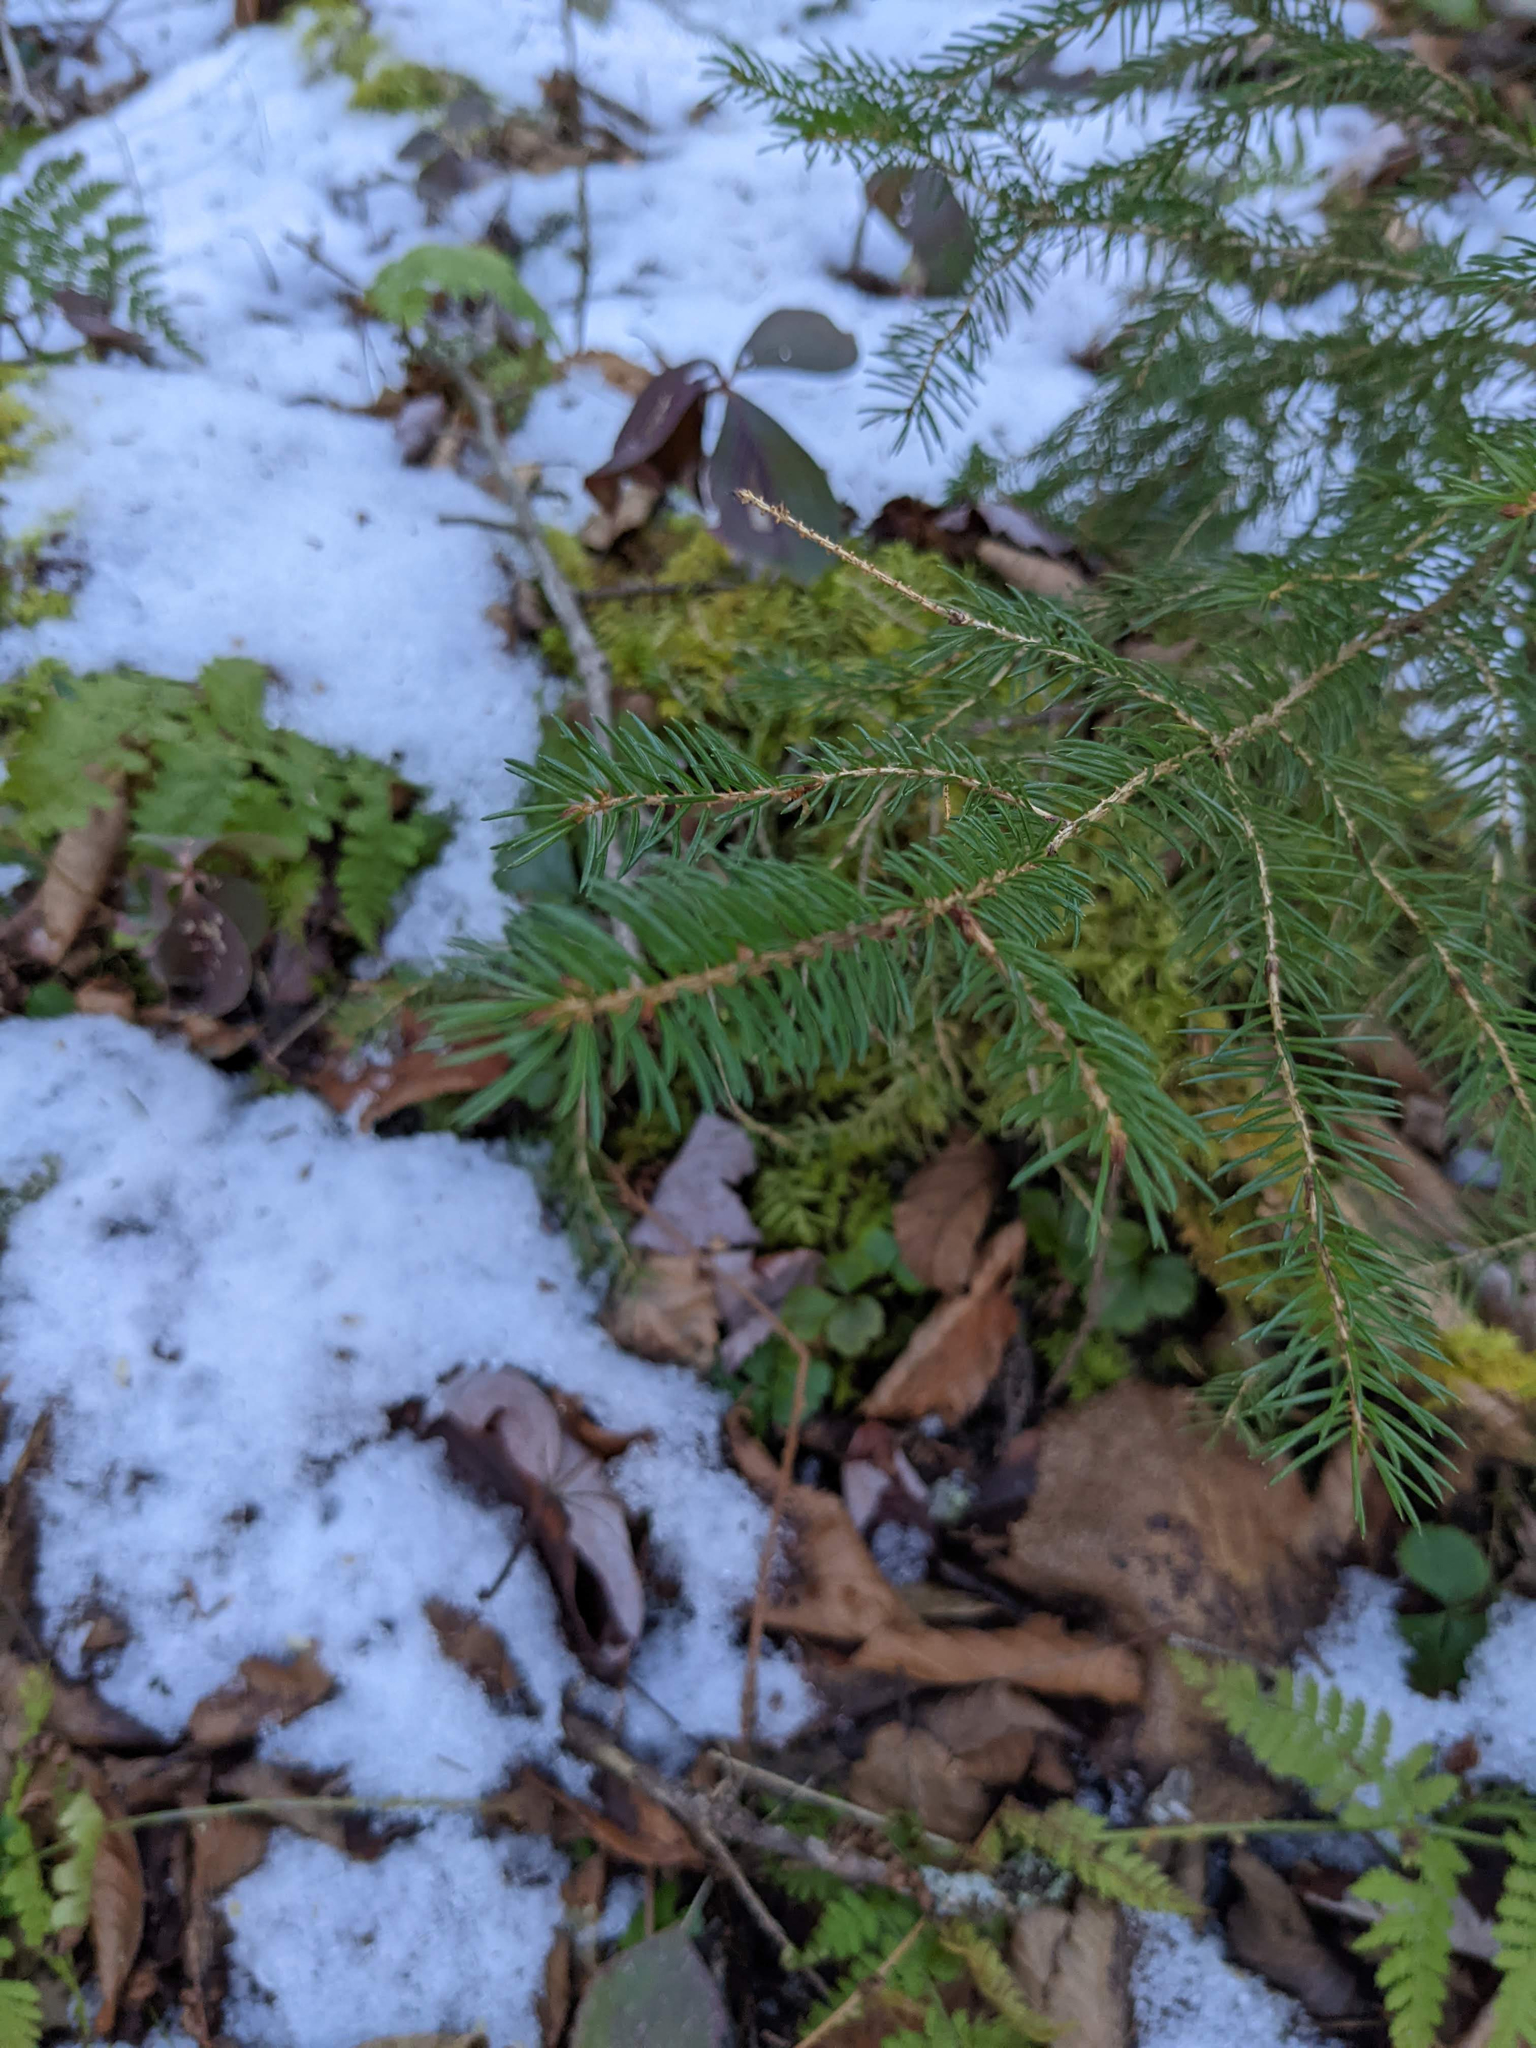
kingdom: Plantae
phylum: Tracheophyta
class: Pinopsida
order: Pinales
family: Pinaceae
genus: Picea
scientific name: Picea rubens
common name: Red spruce
